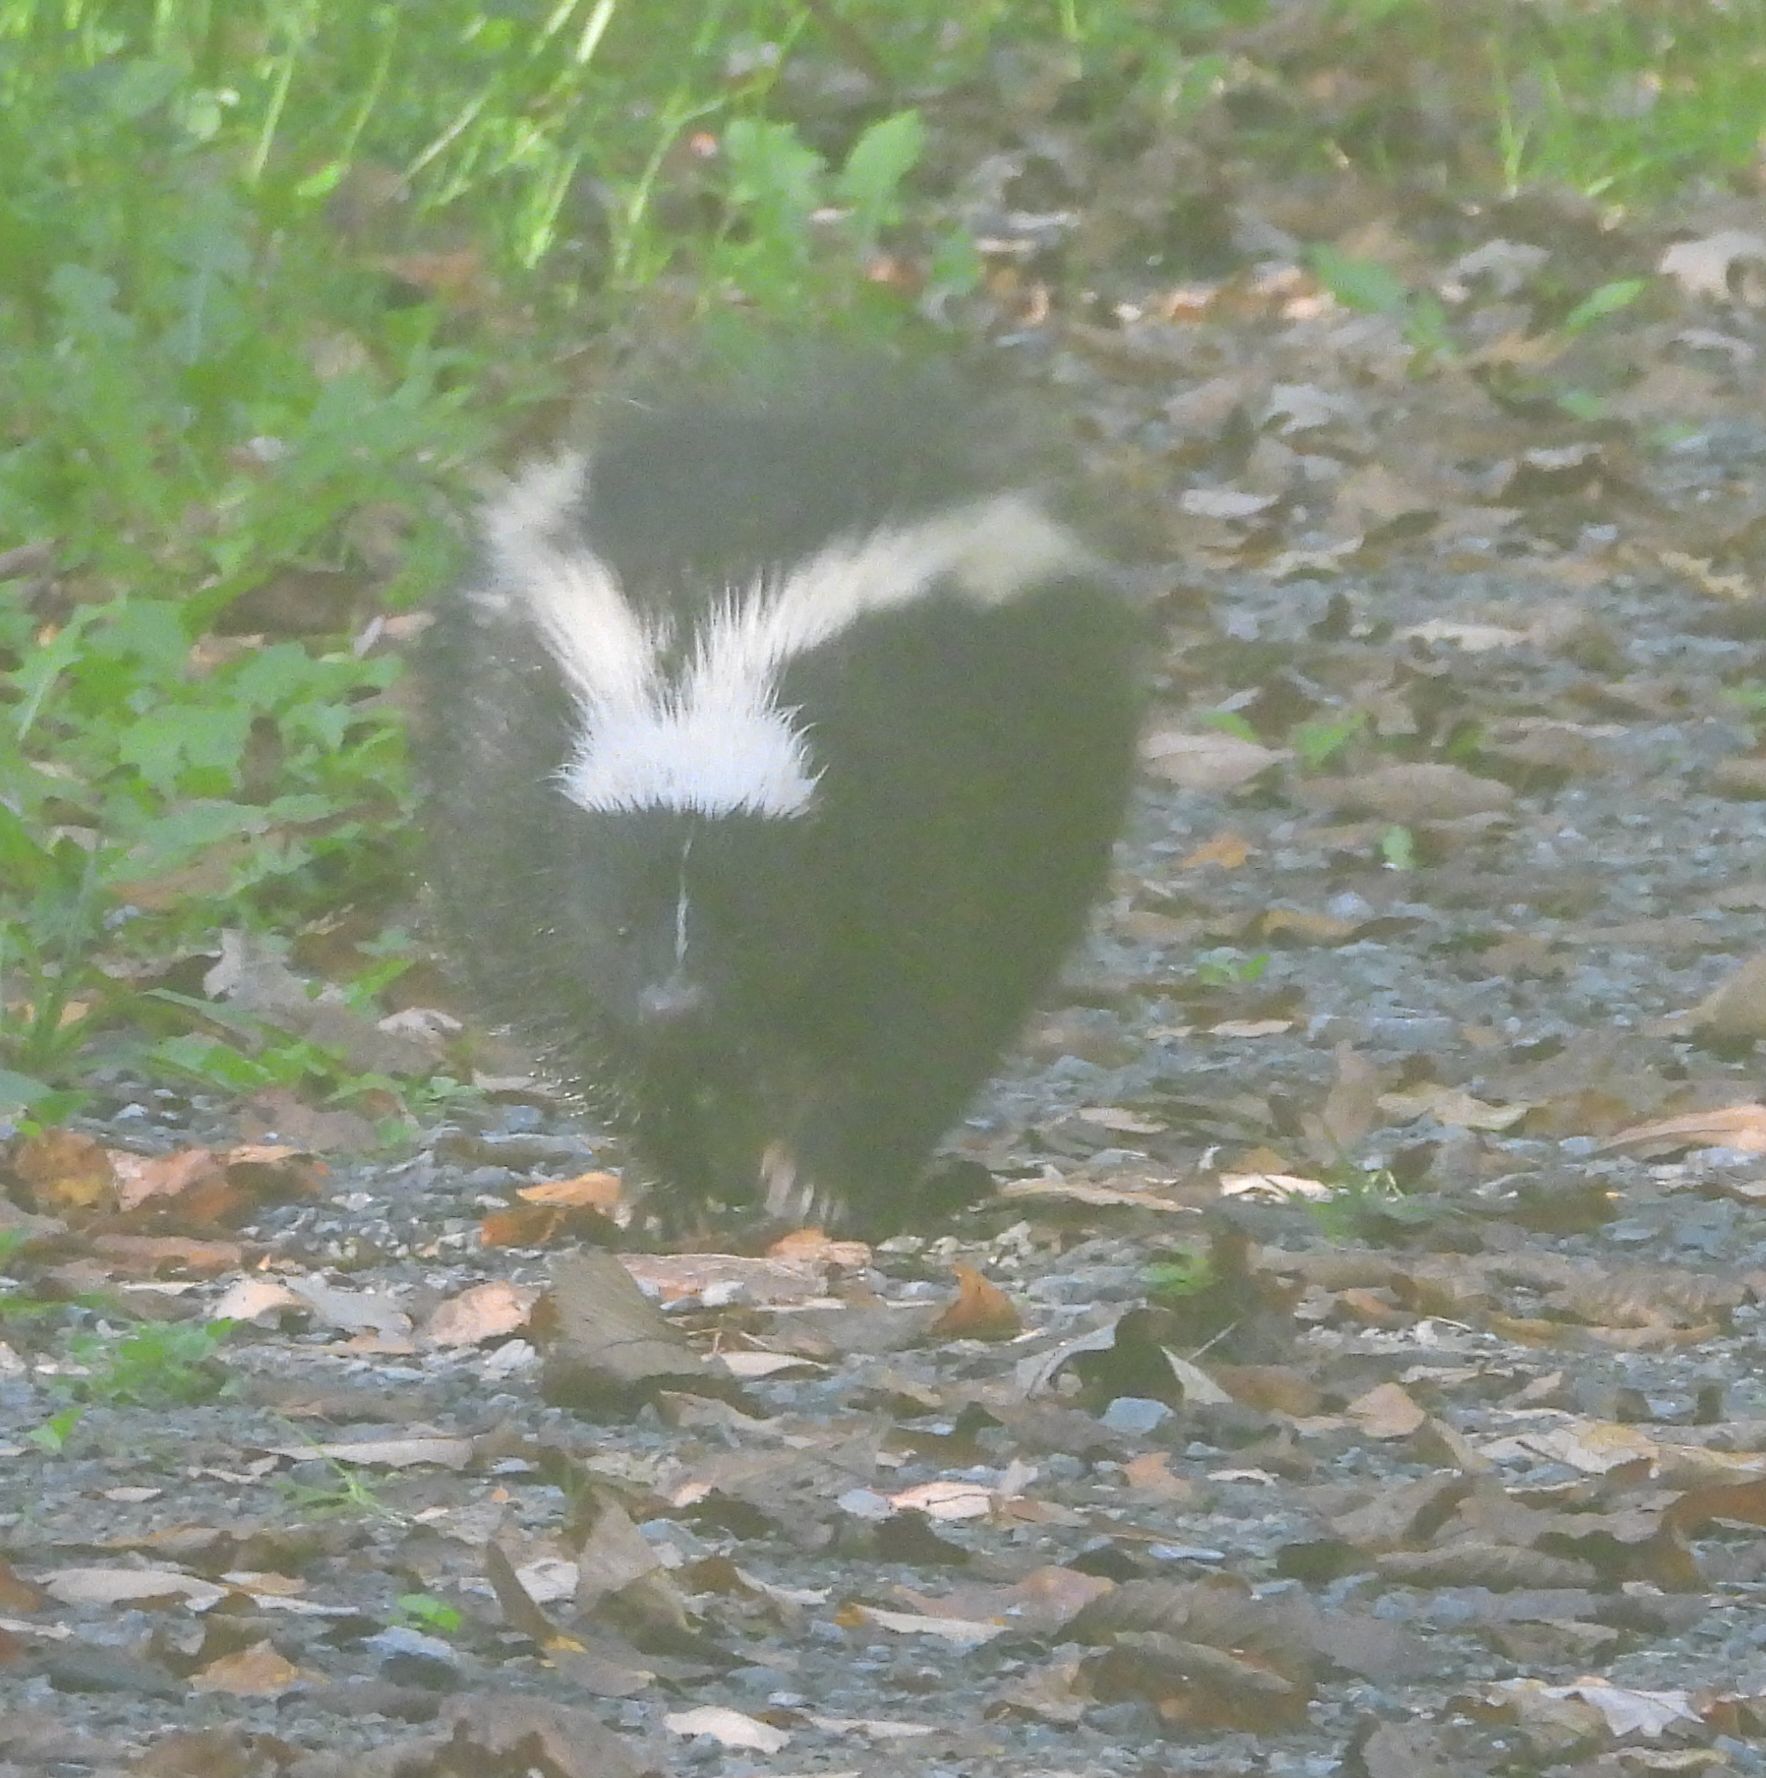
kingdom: Animalia
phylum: Chordata
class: Mammalia
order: Carnivora
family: Mephitidae
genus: Mephitis
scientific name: Mephitis mephitis
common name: Striped skunk
